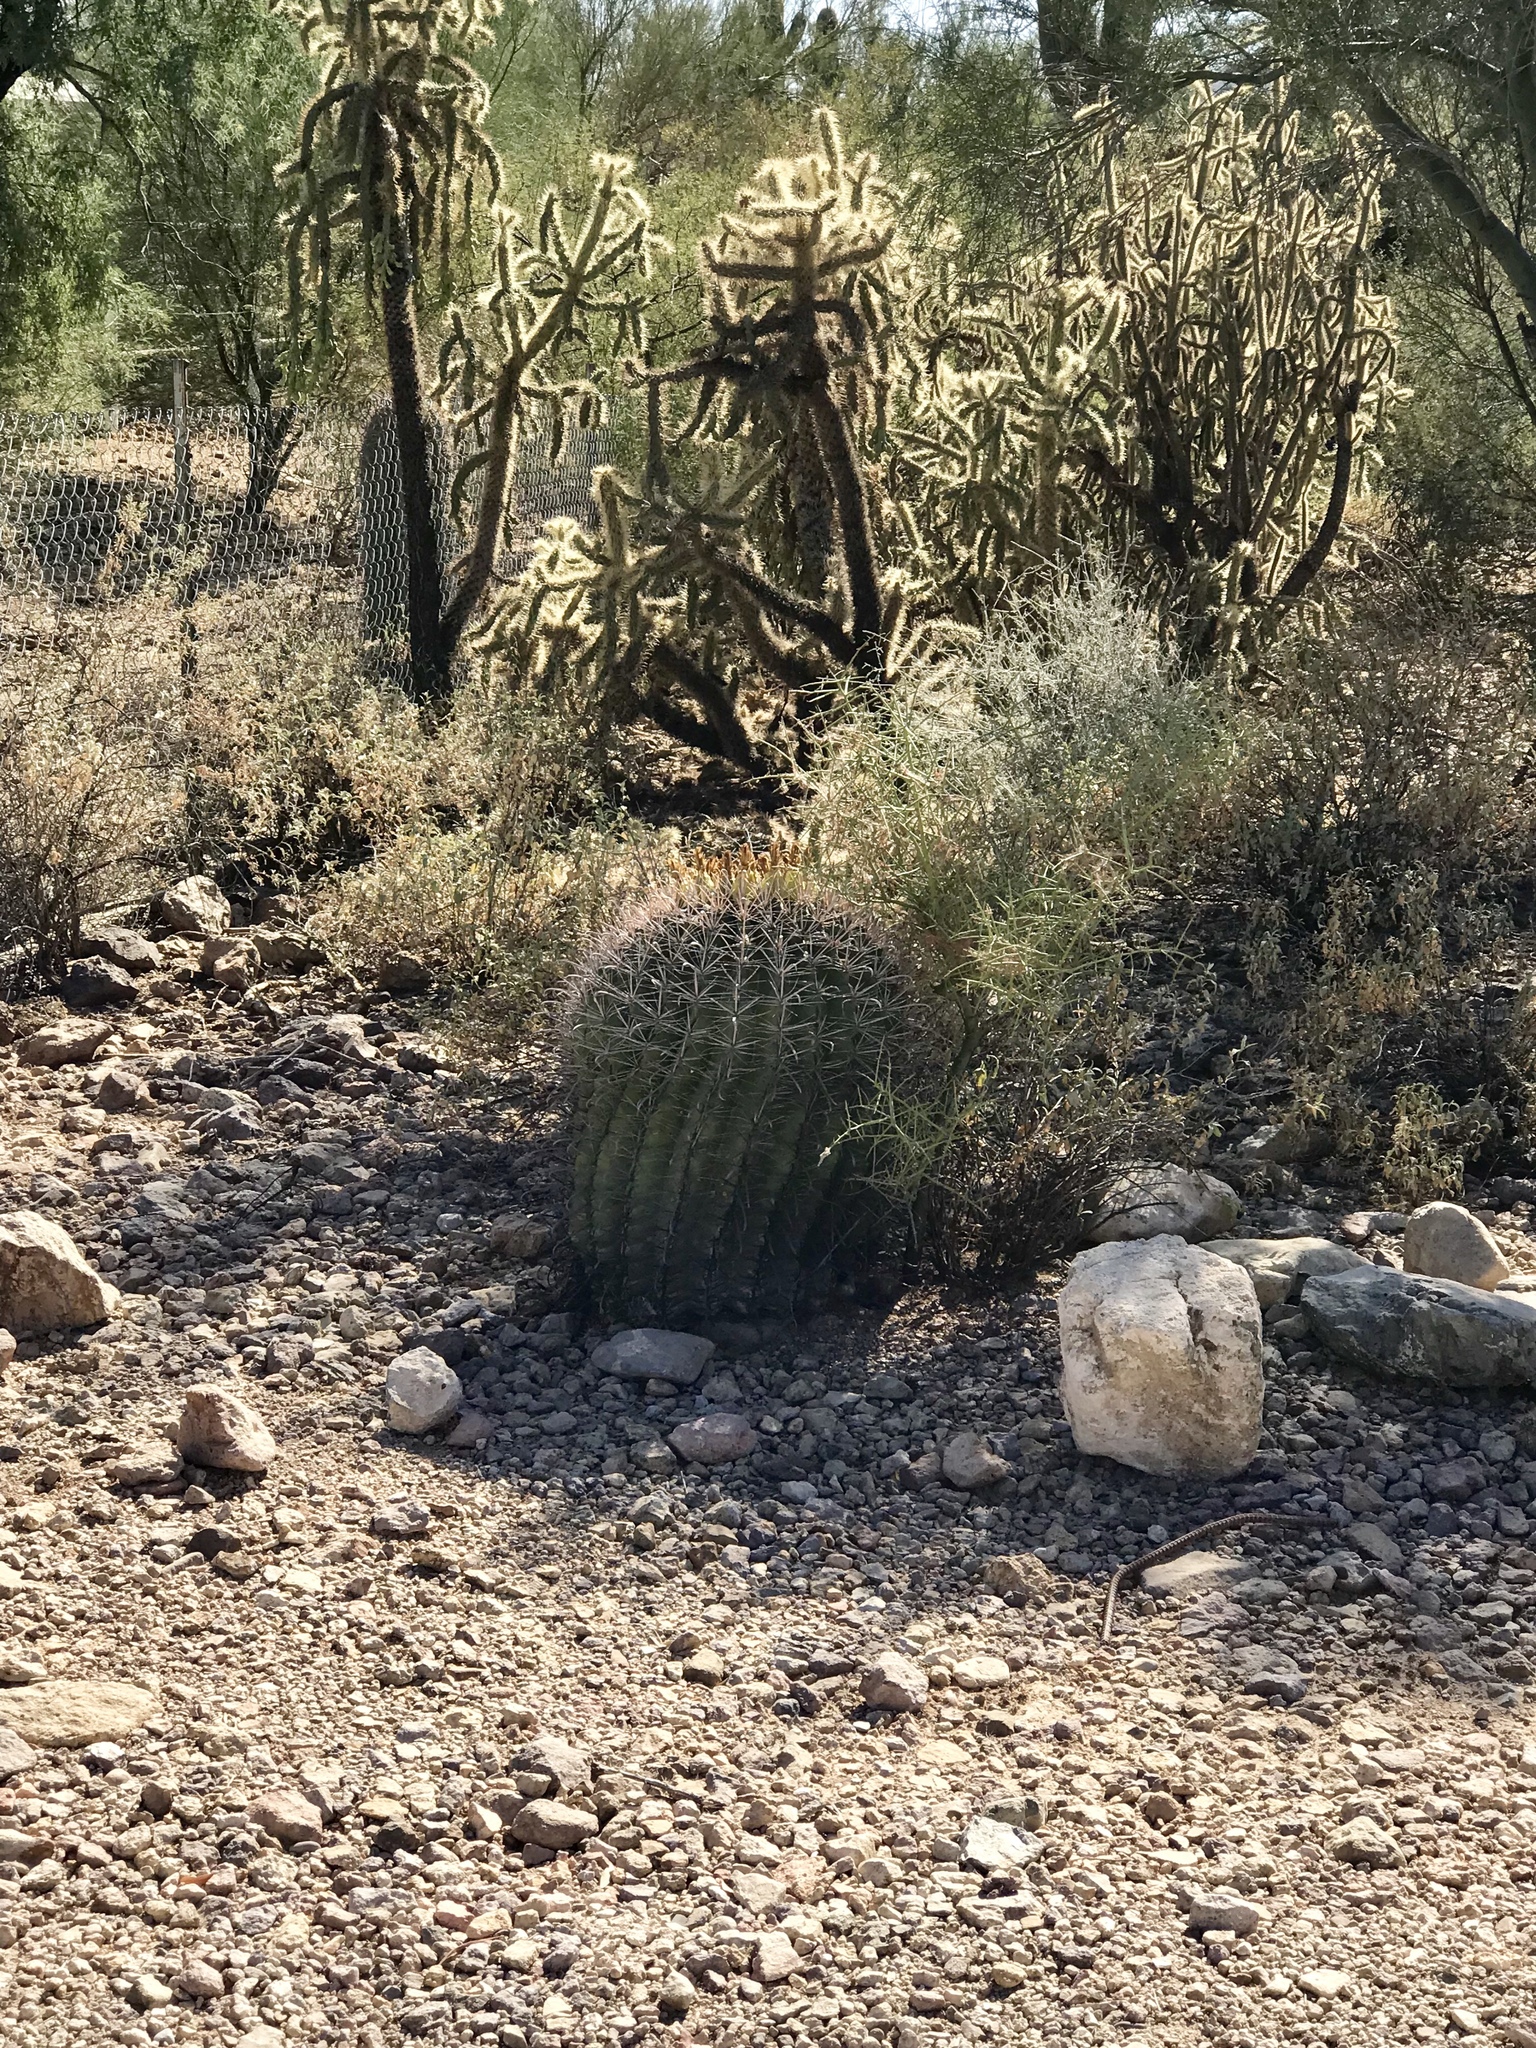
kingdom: Plantae
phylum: Tracheophyta
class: Magnoliopsida
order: Caryophyllales
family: Cactaceae
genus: Ferocactus
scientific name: Ferocactus wislizeni
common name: Candy barrel cactus
